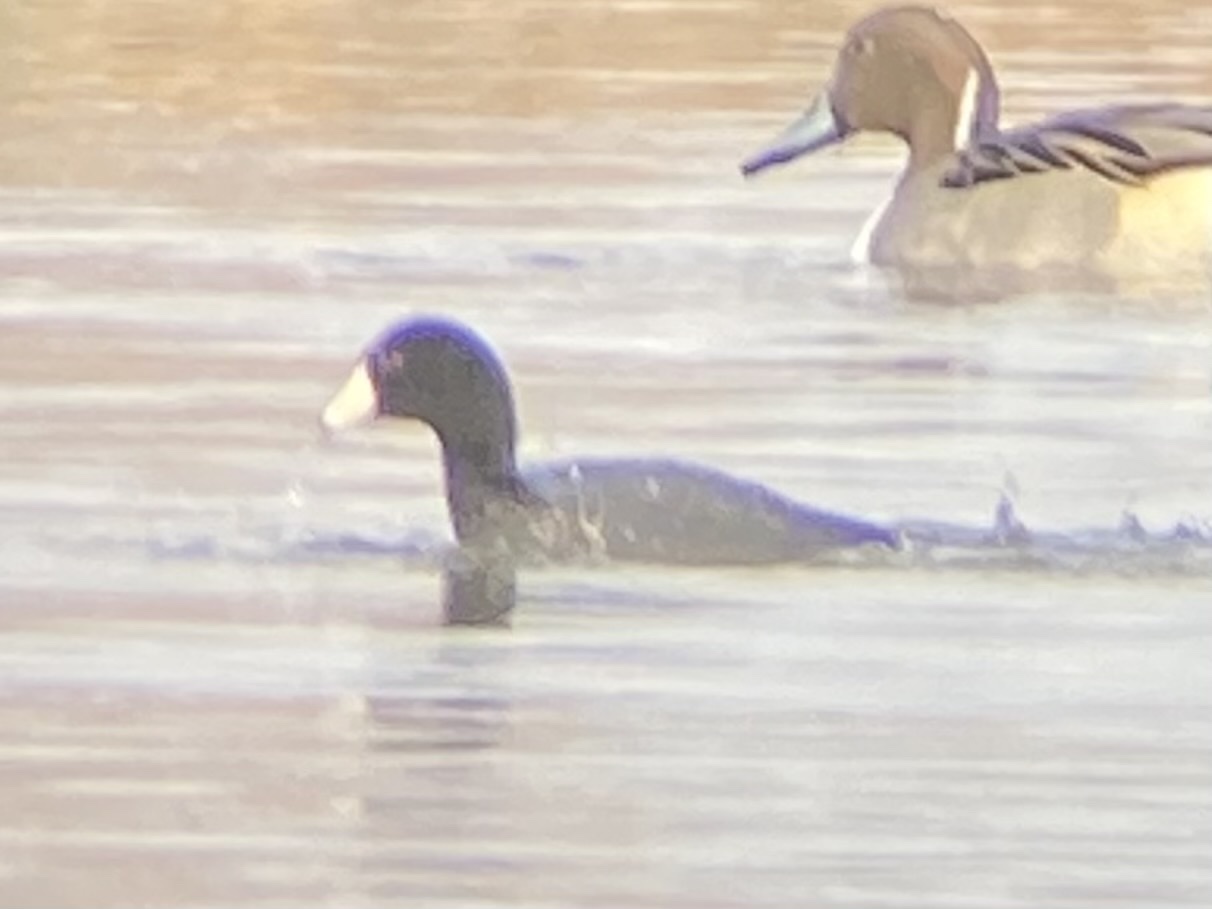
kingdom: Animalia
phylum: Chordata
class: Aves
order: Gruiformes
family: Rallidae
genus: Fulica
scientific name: Fulica americana
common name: American coot
